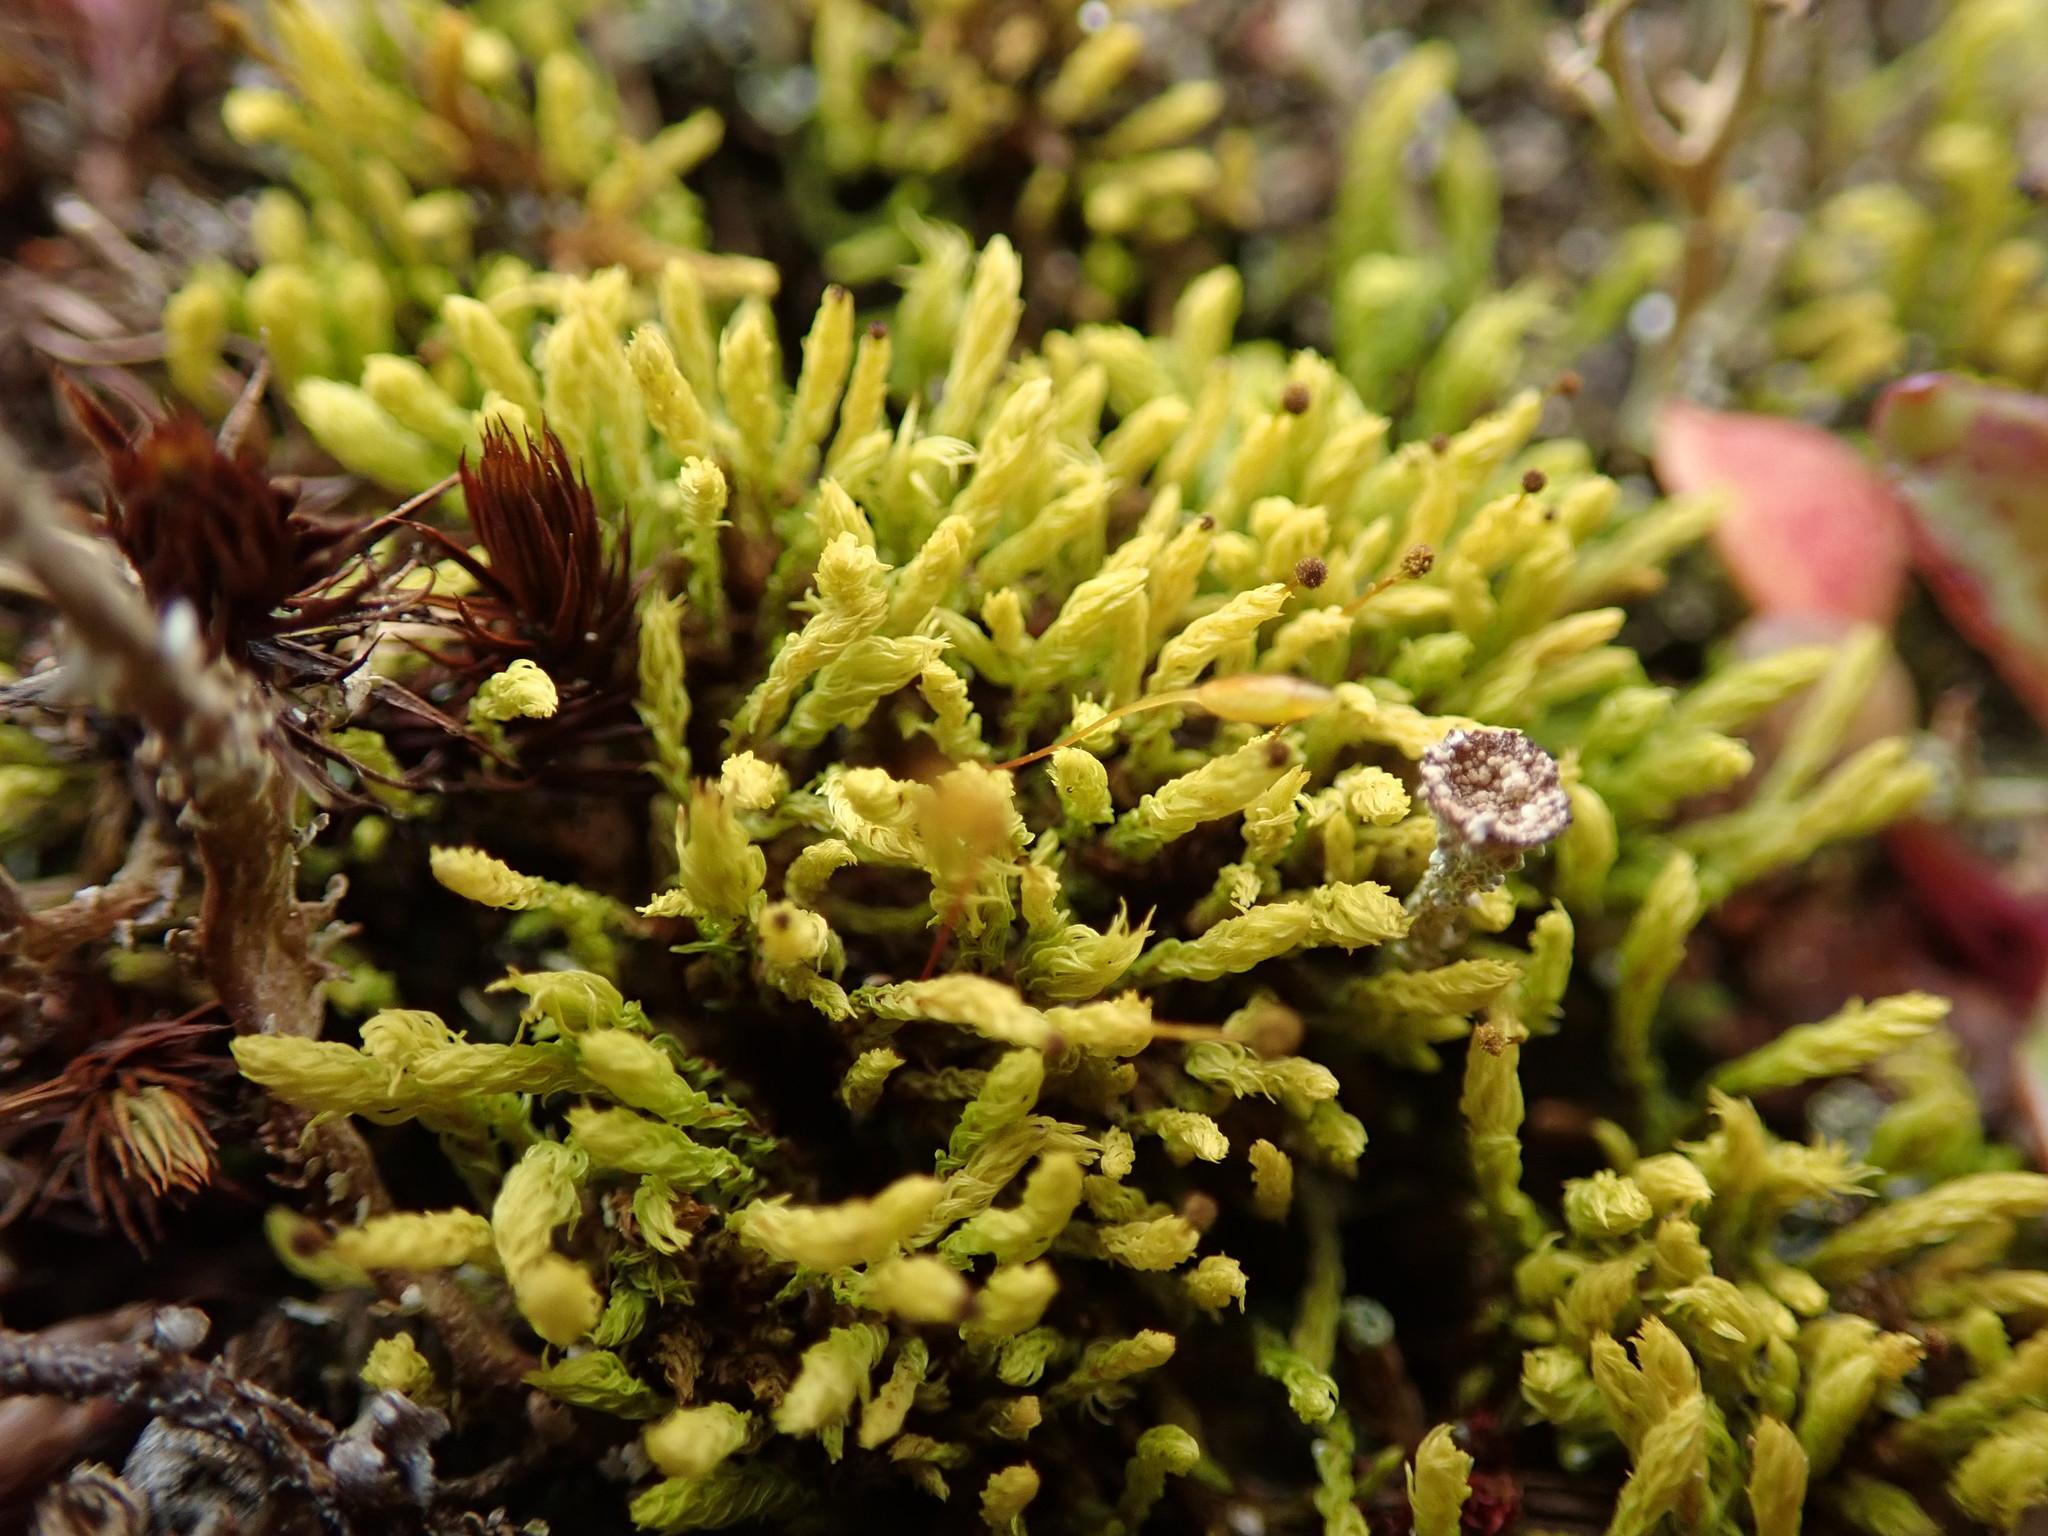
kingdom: Plantae
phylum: Bryophyta
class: Bryopsida
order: Aulacomniales
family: Aulacomniaceae
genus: Aulacomnium
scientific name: Aulacomnium androgynum
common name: Little groove moss
